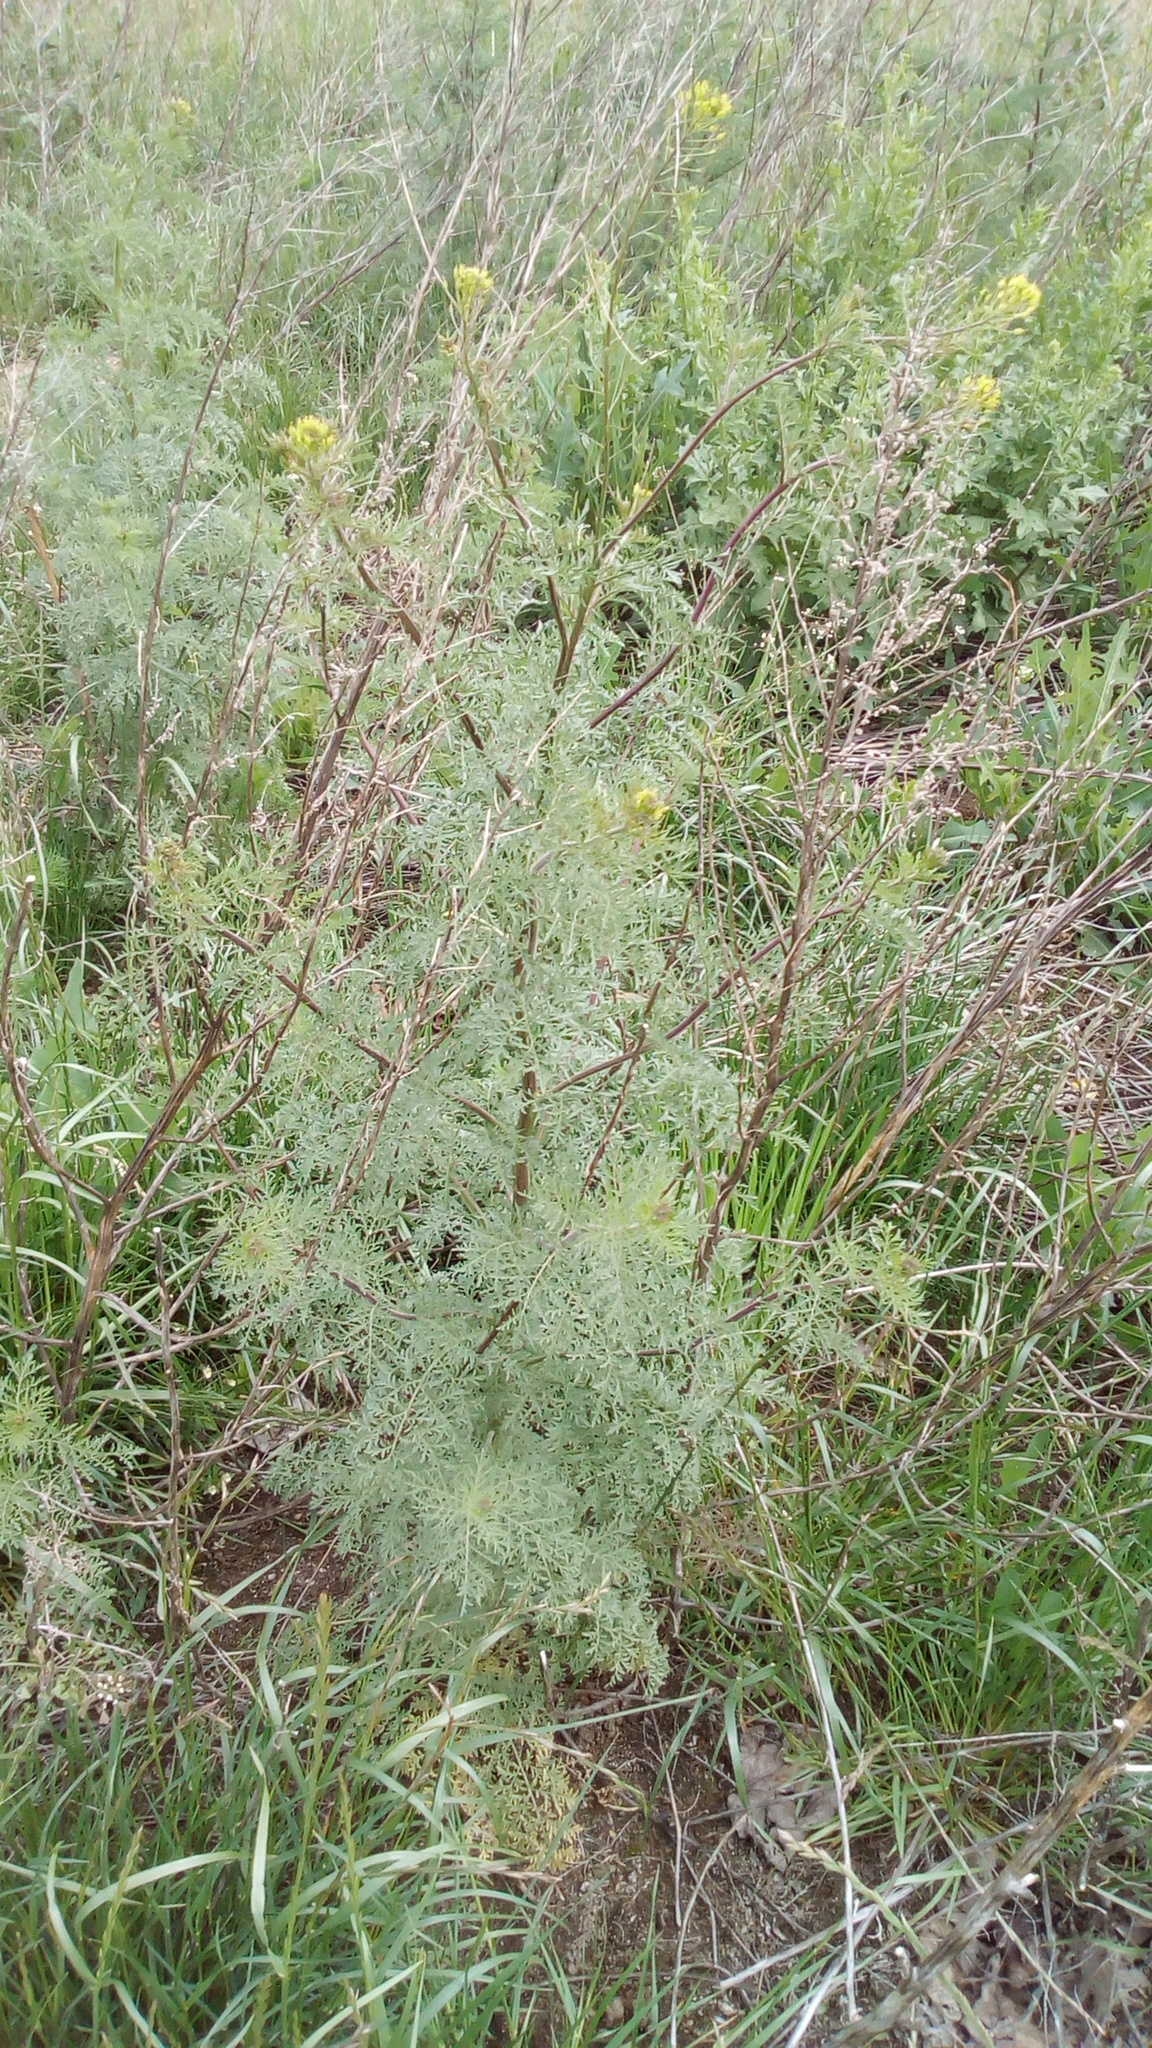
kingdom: Plantae
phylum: Tracheophyta
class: Magnoliopsida
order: Brassicales
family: Brassicaceae
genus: Descurainia
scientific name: Descurainia sophia
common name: Flixweed
